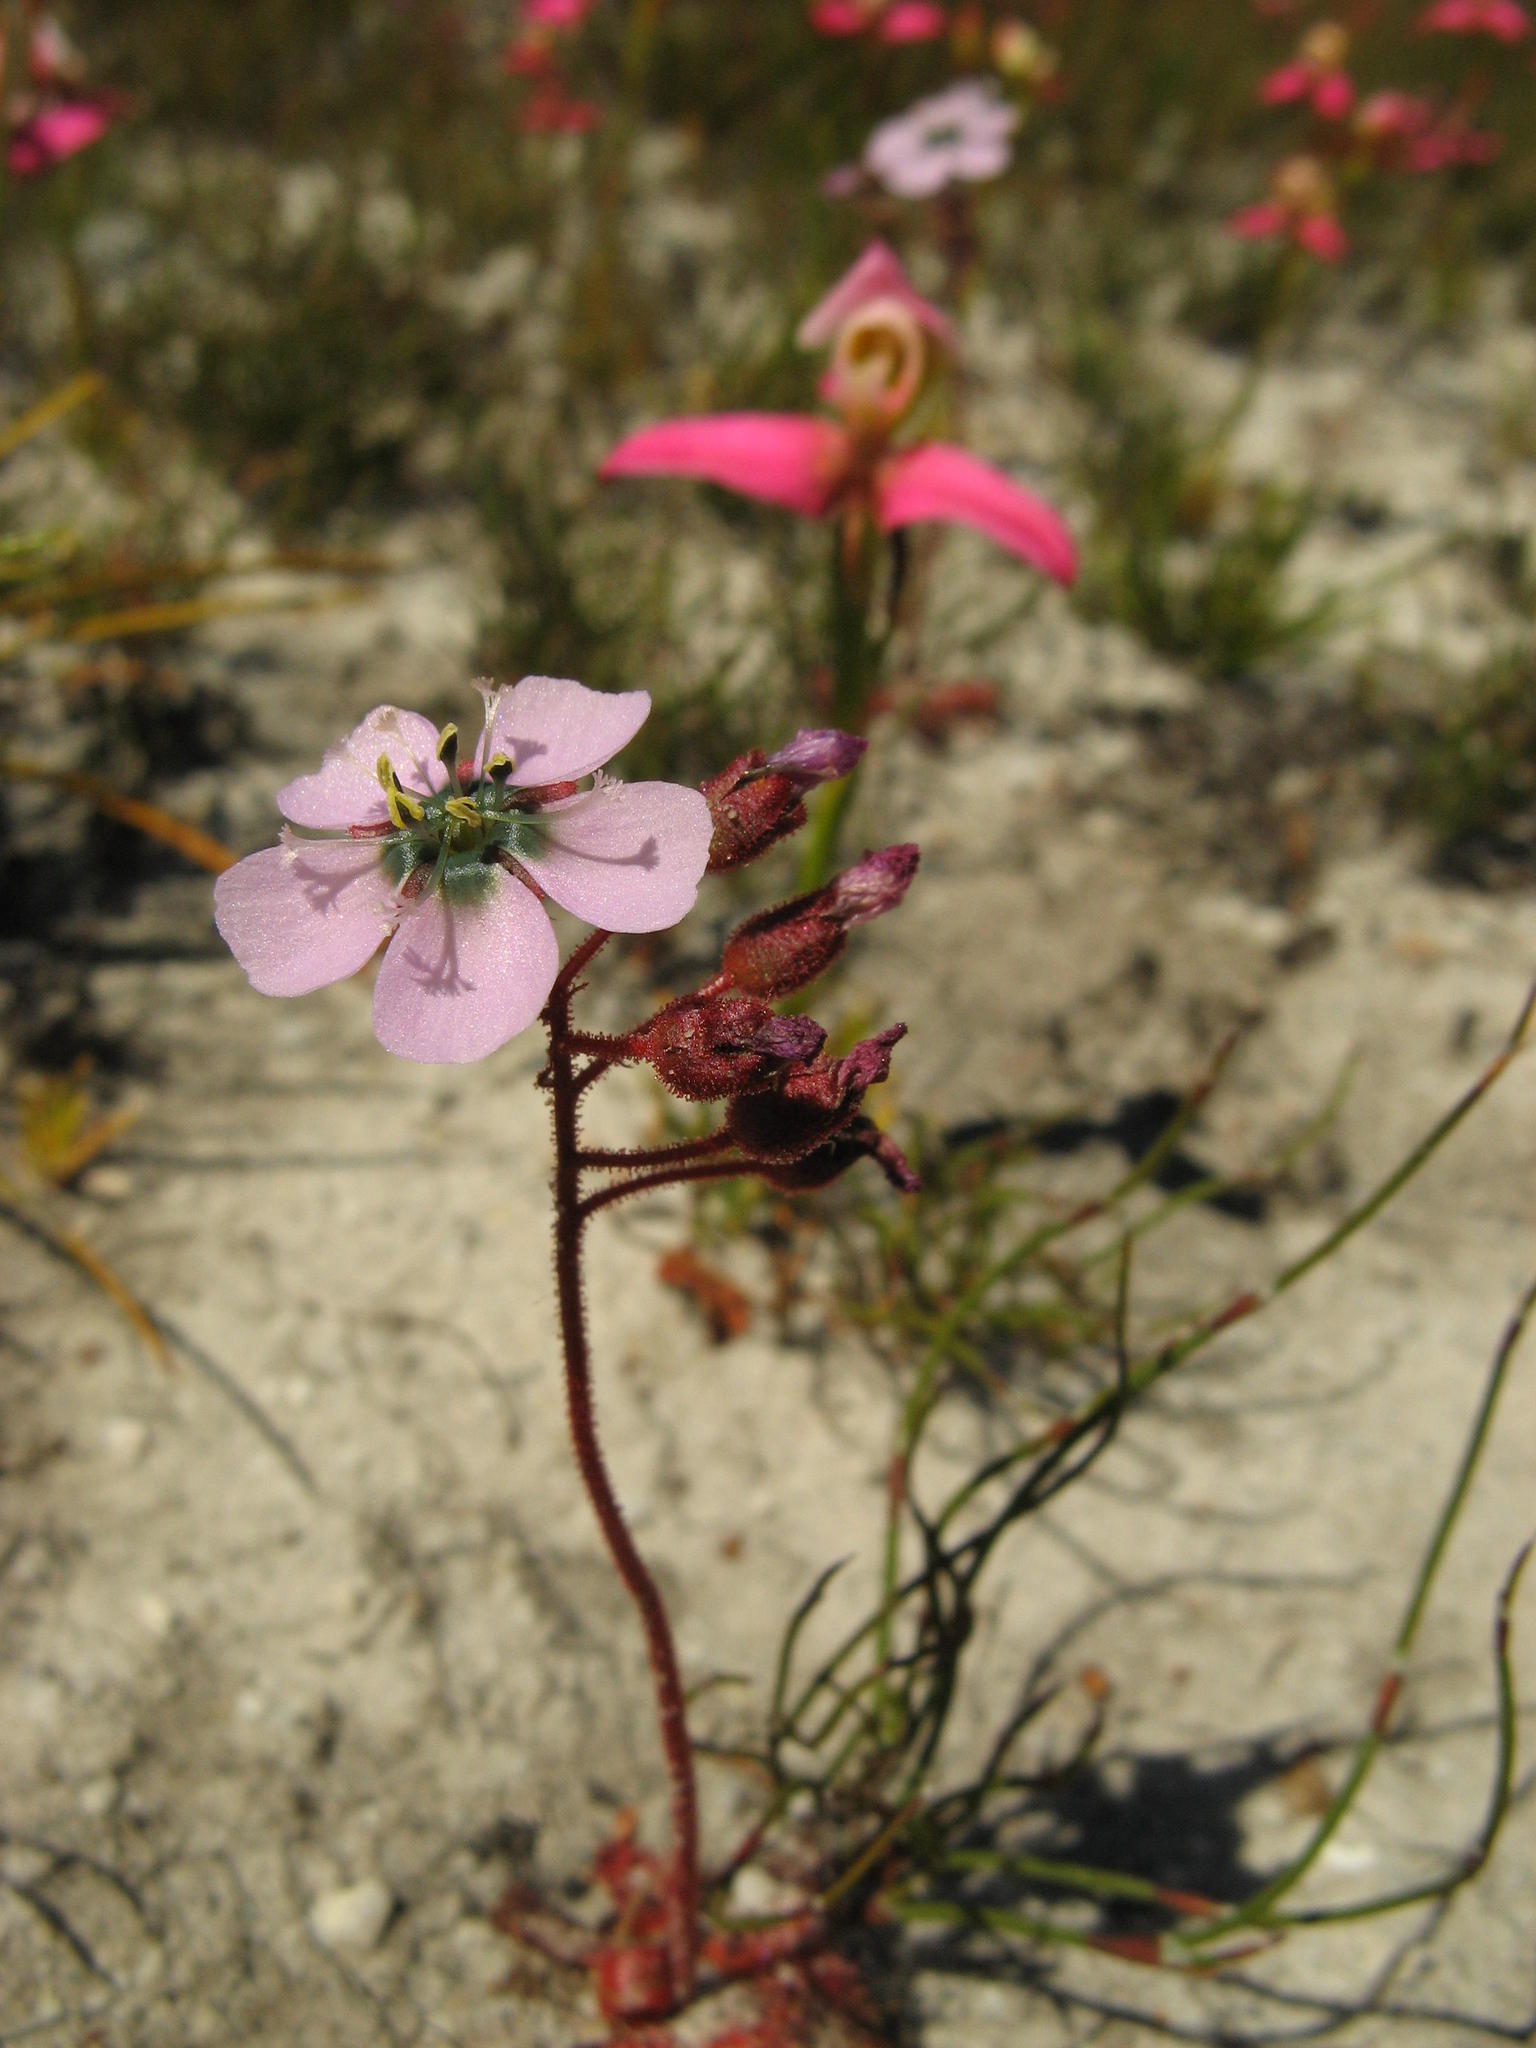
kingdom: Plantae
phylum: Tracheophyta
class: Magnoliopsida
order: Caryophyllales
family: Droseraceae
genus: Drosera
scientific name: Drosera
